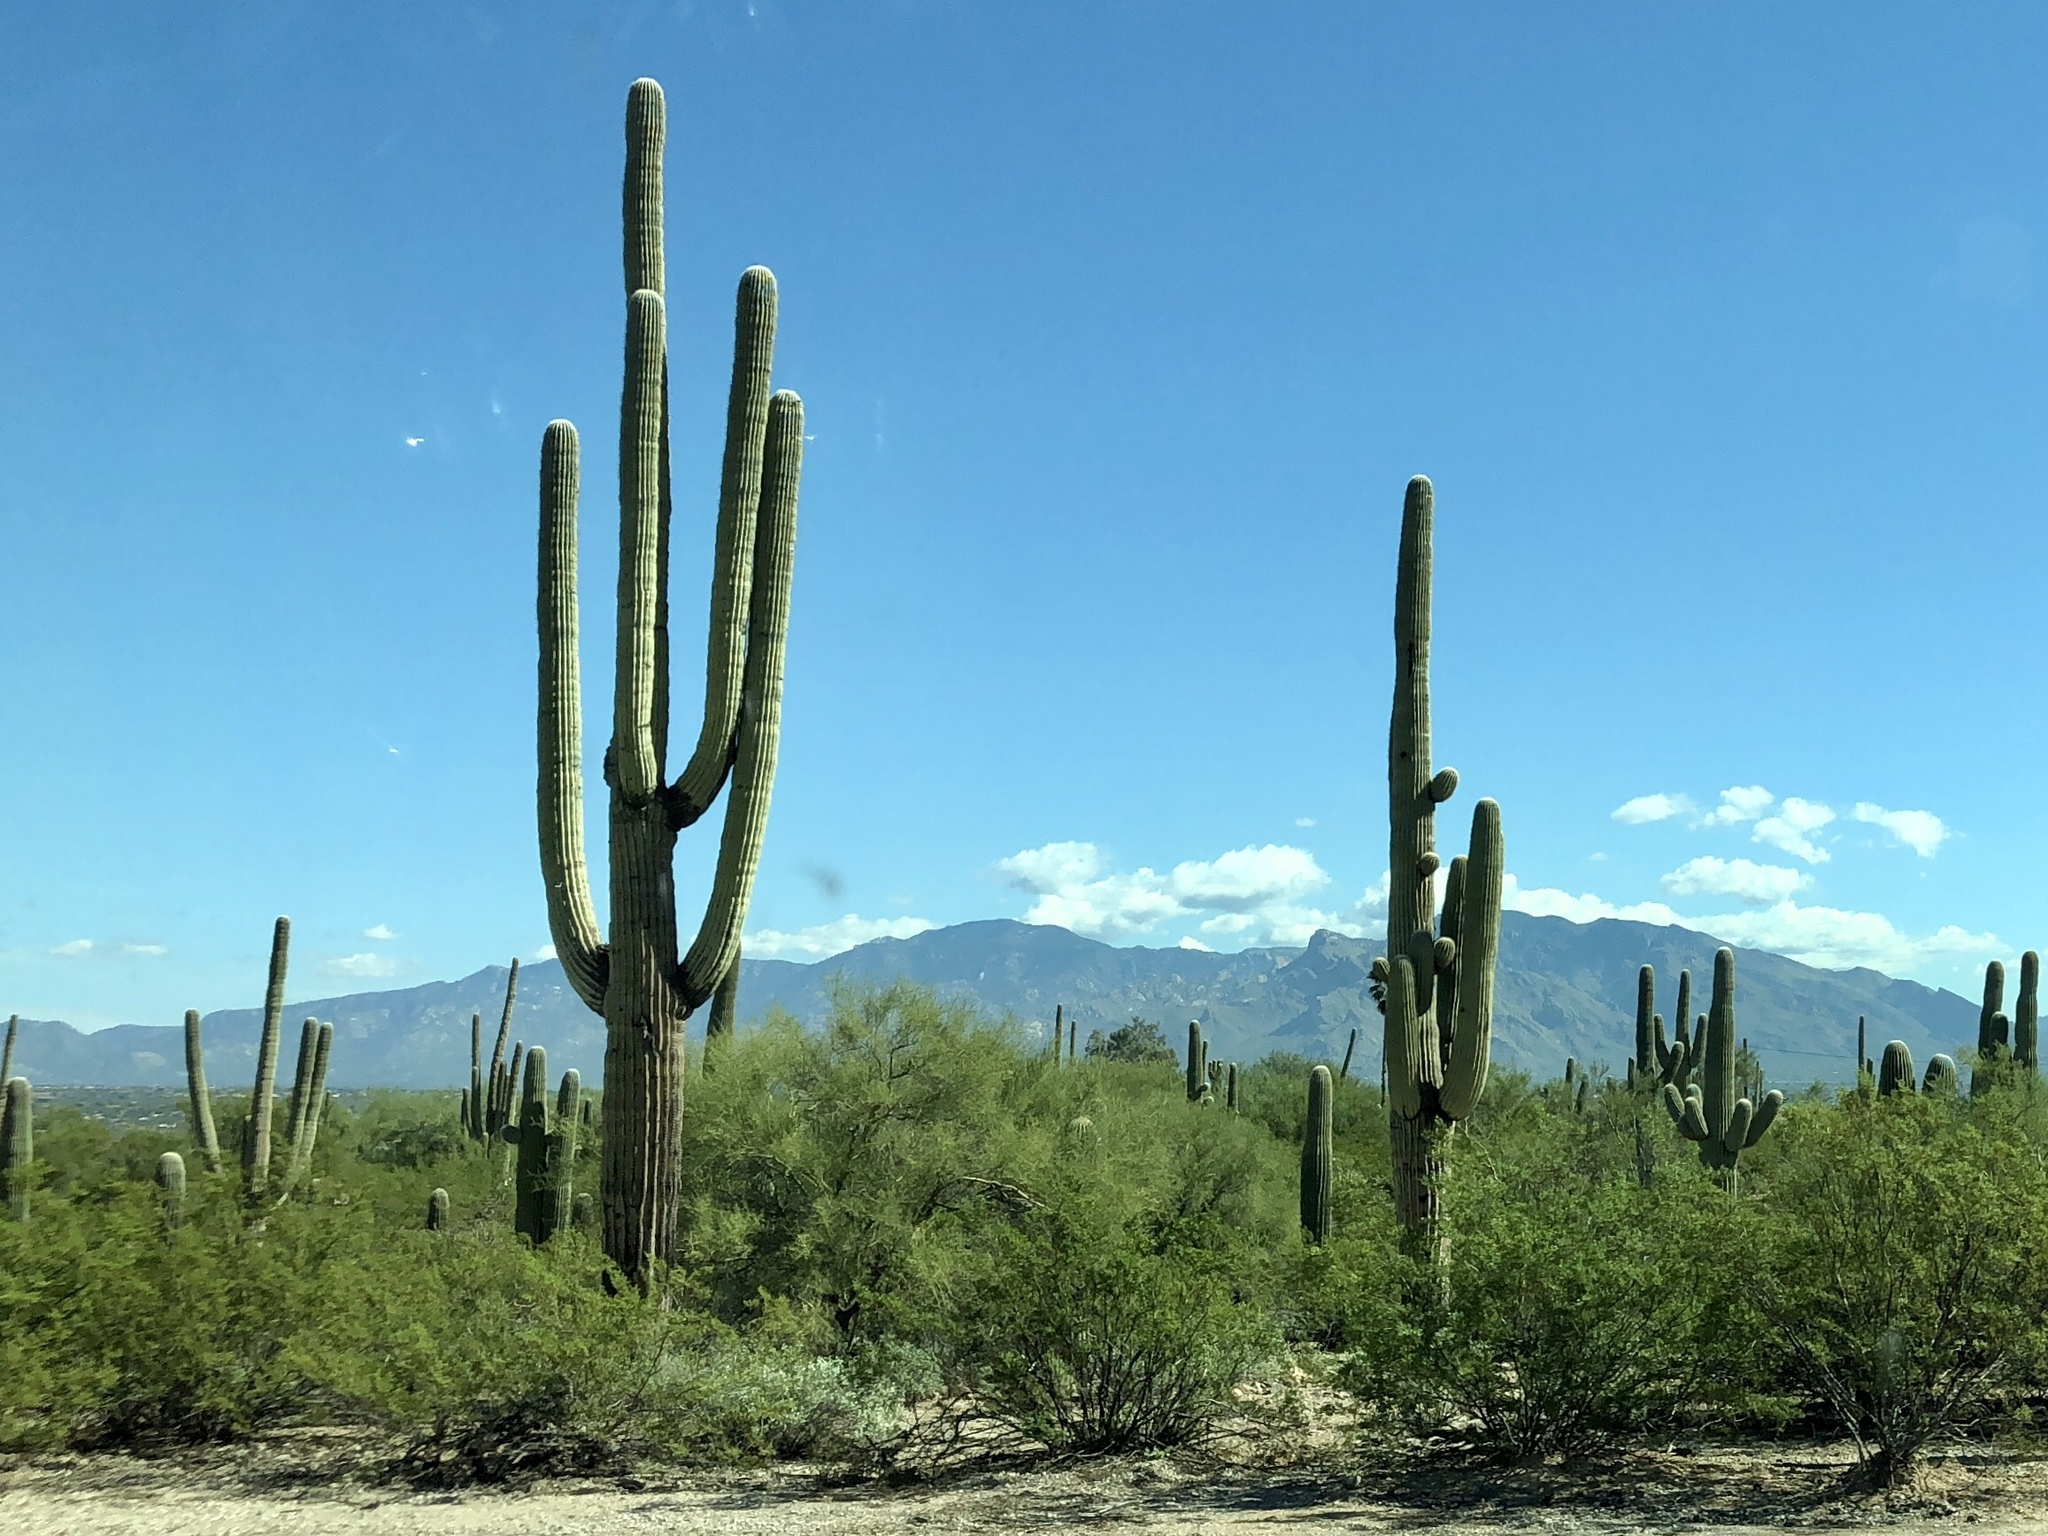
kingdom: Plantae
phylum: Tracheophyta
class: Magnoliopsida
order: Caryophyllales
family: Cactaceae
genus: Carnegiea
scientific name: Carnegiea gigantea
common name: Saguaro
